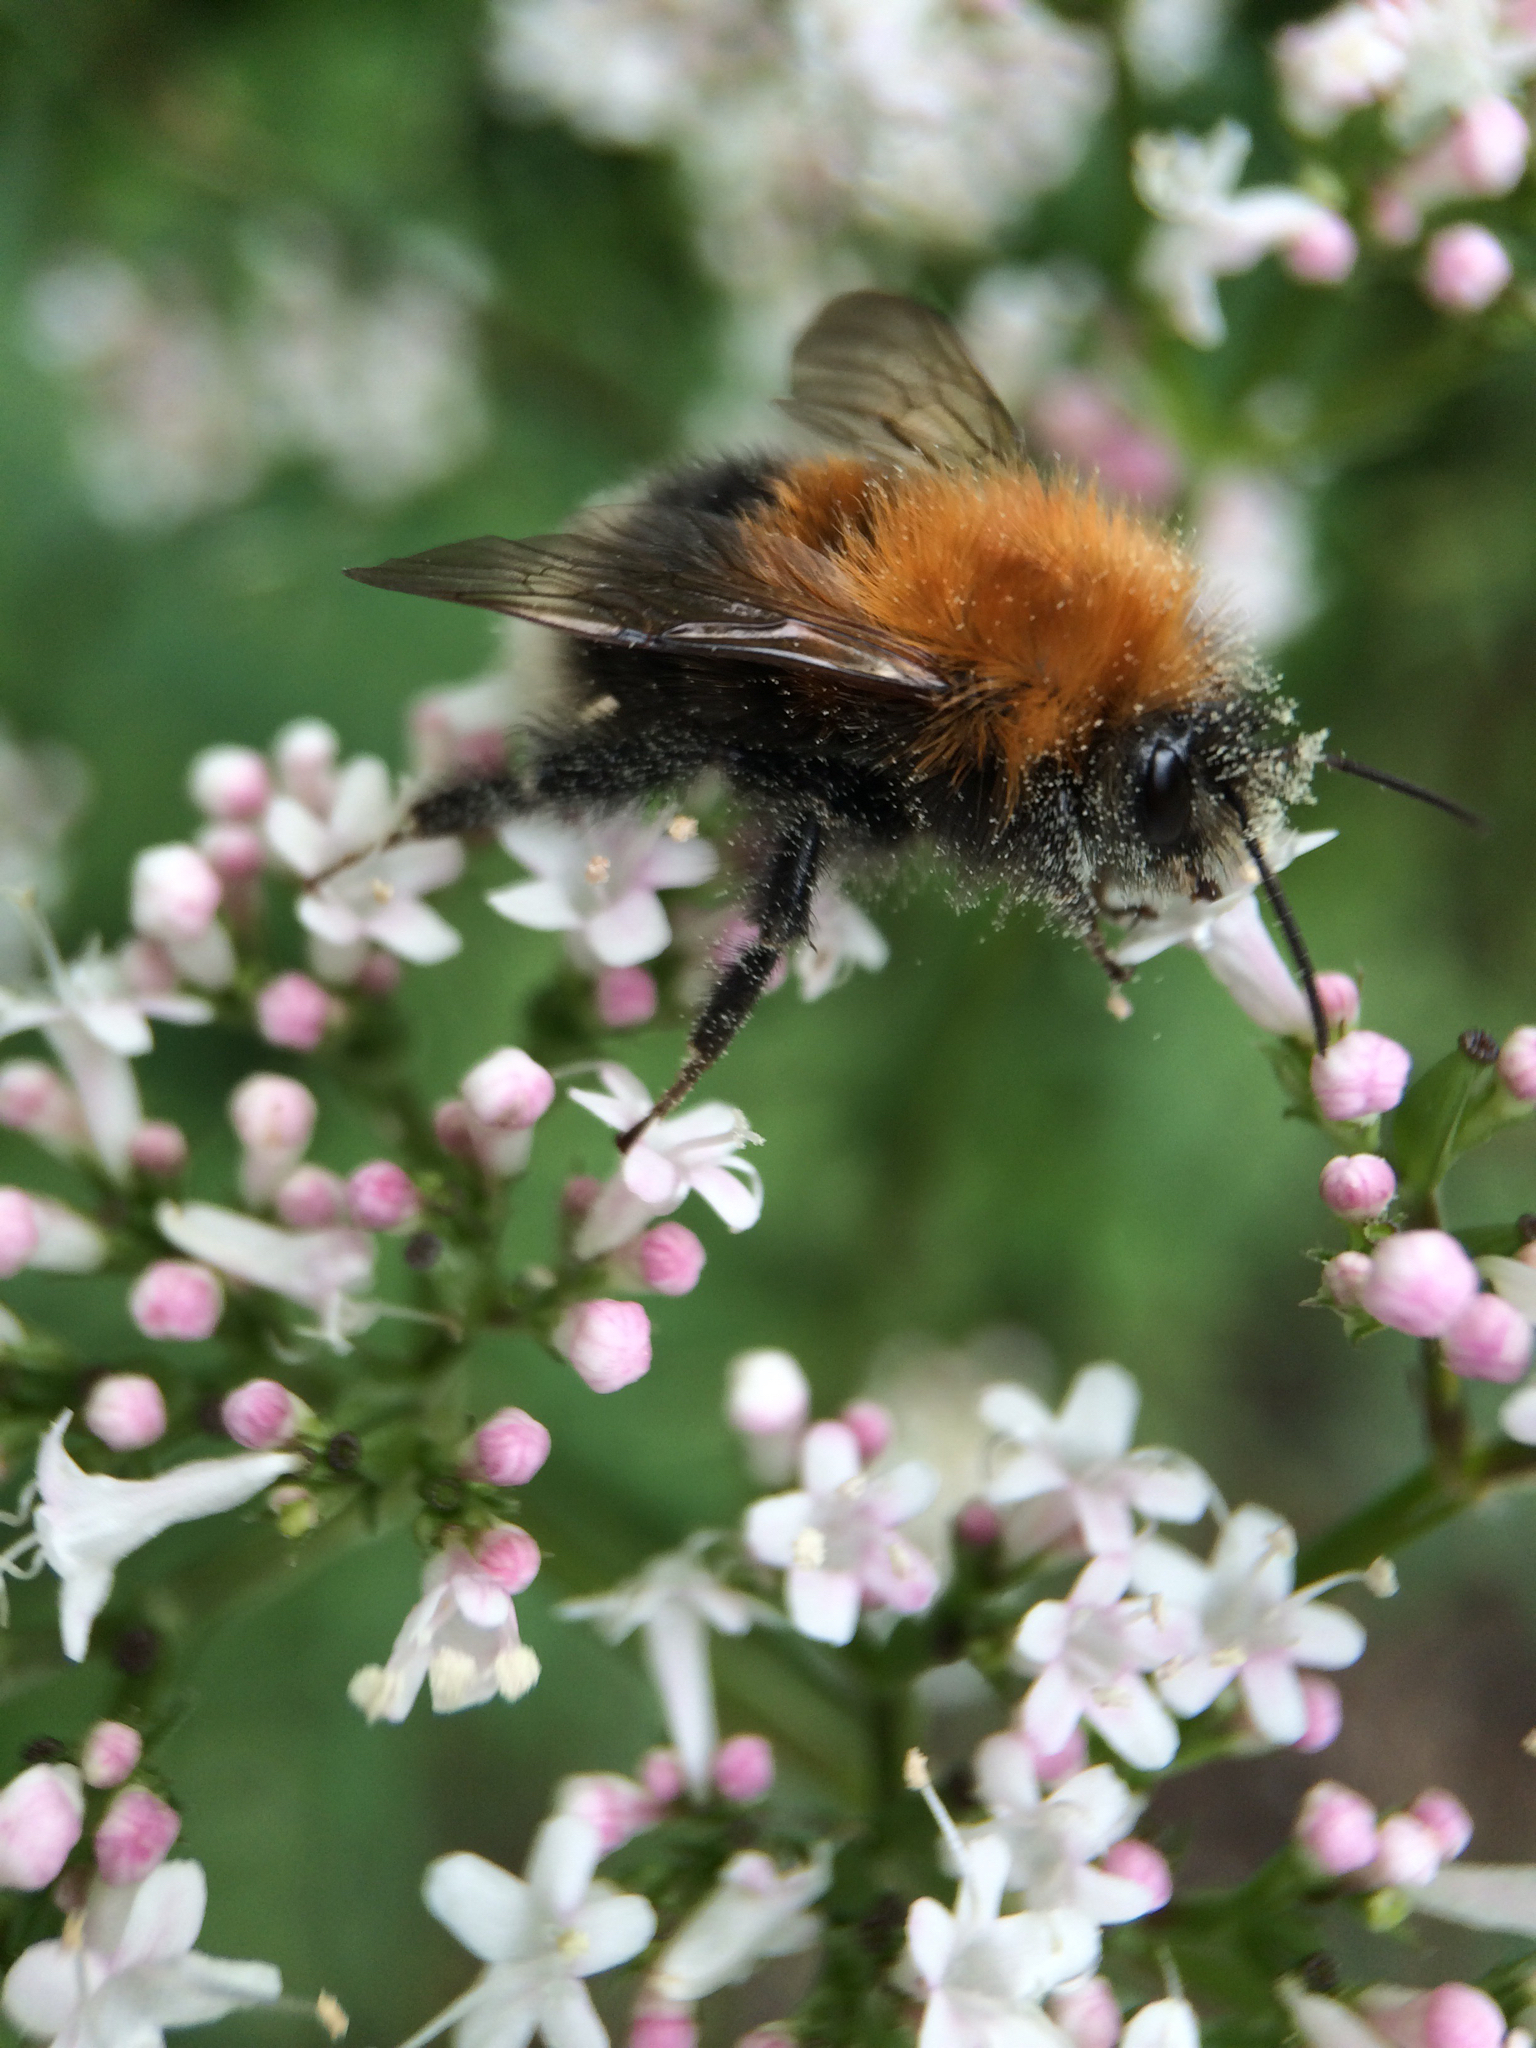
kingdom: Animalia
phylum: Arthropoda
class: Insecta
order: Hymenoptera
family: Apidae
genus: Bombus
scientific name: Bombus hypnorum
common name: New garden bumblebee
